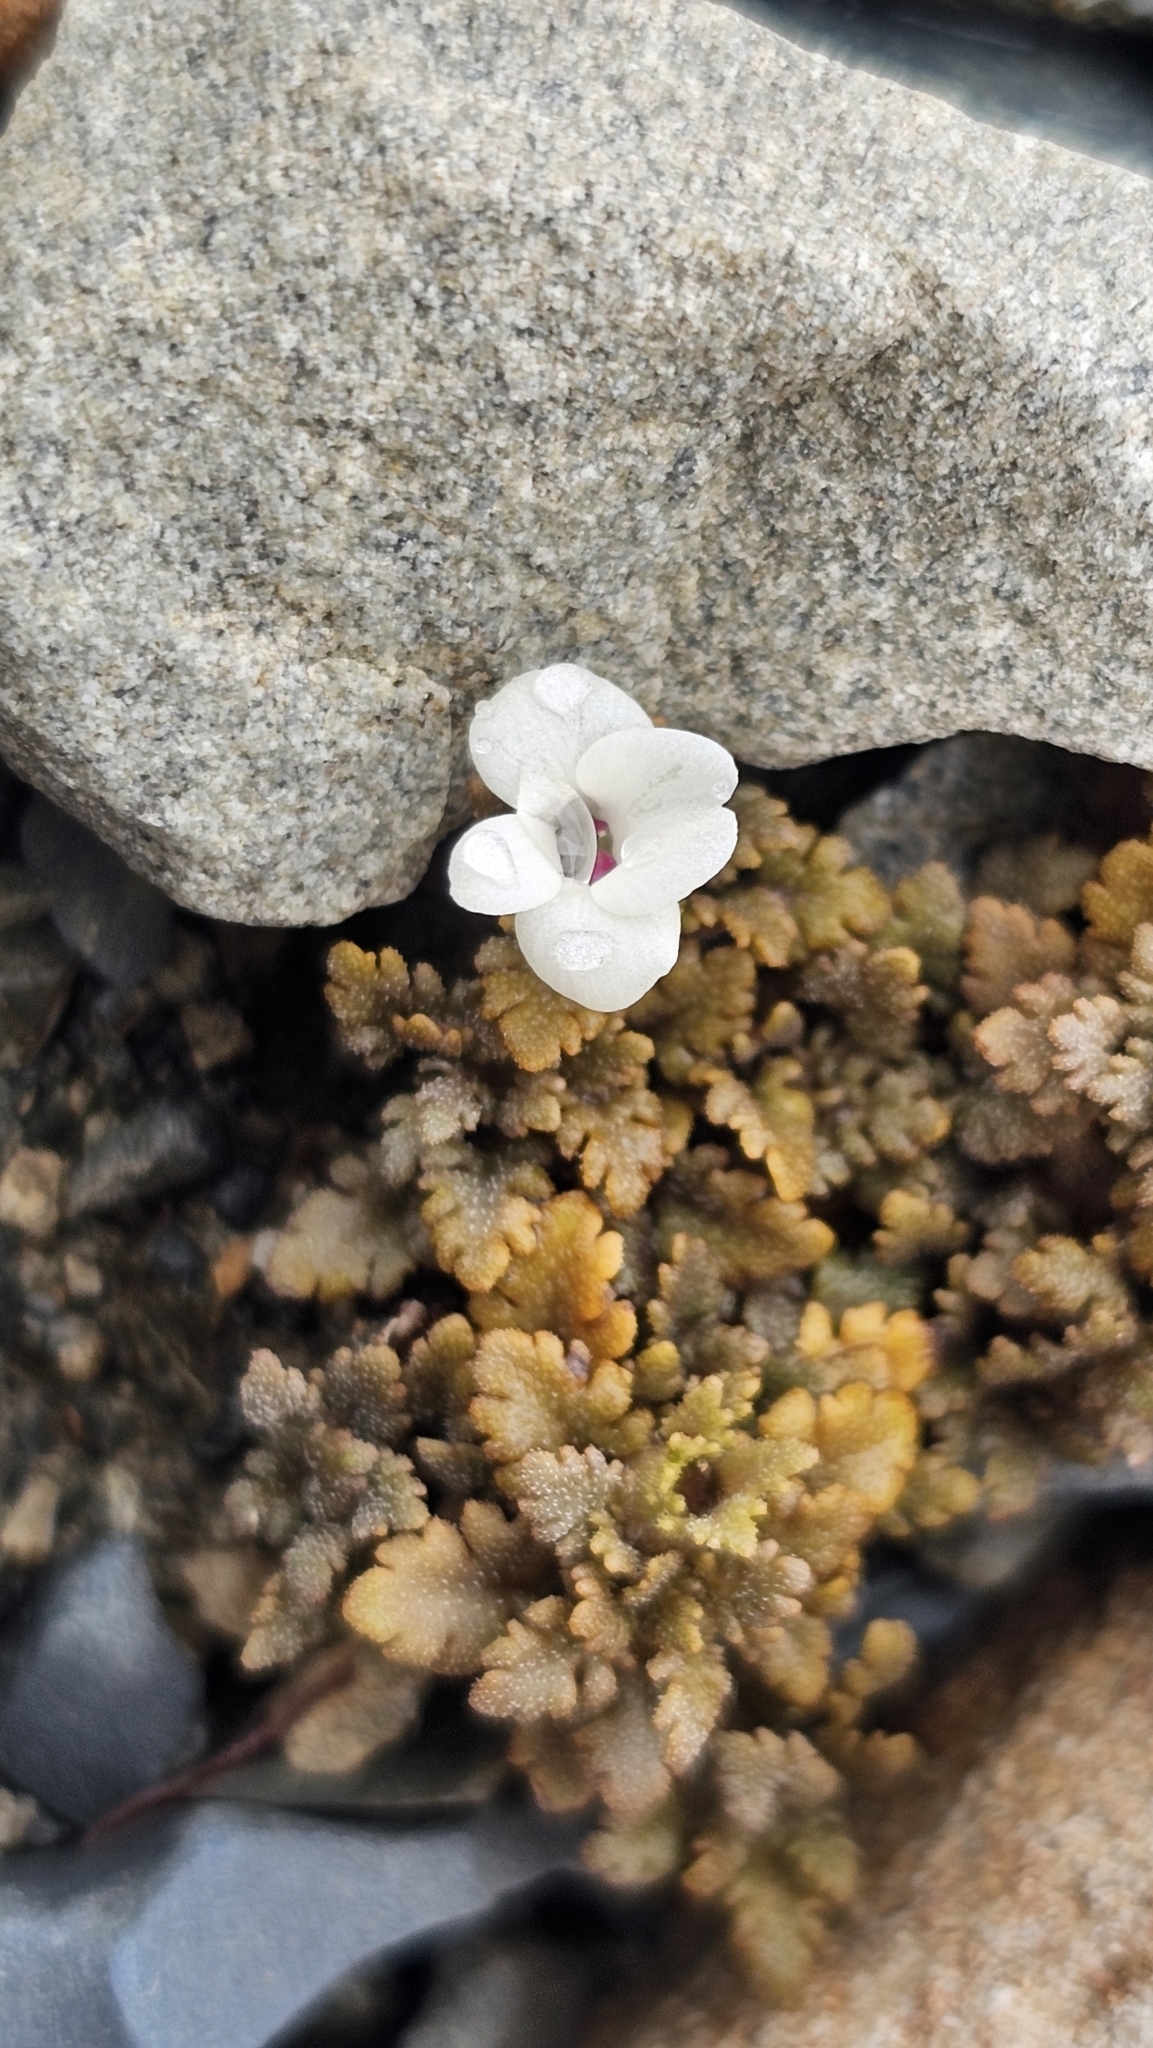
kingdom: Plantae
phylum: Tracheophyta
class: Magnoliopsida
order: Lamiales
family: Plantaginaceae
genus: Veronica
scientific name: Veronica cheesemanii
